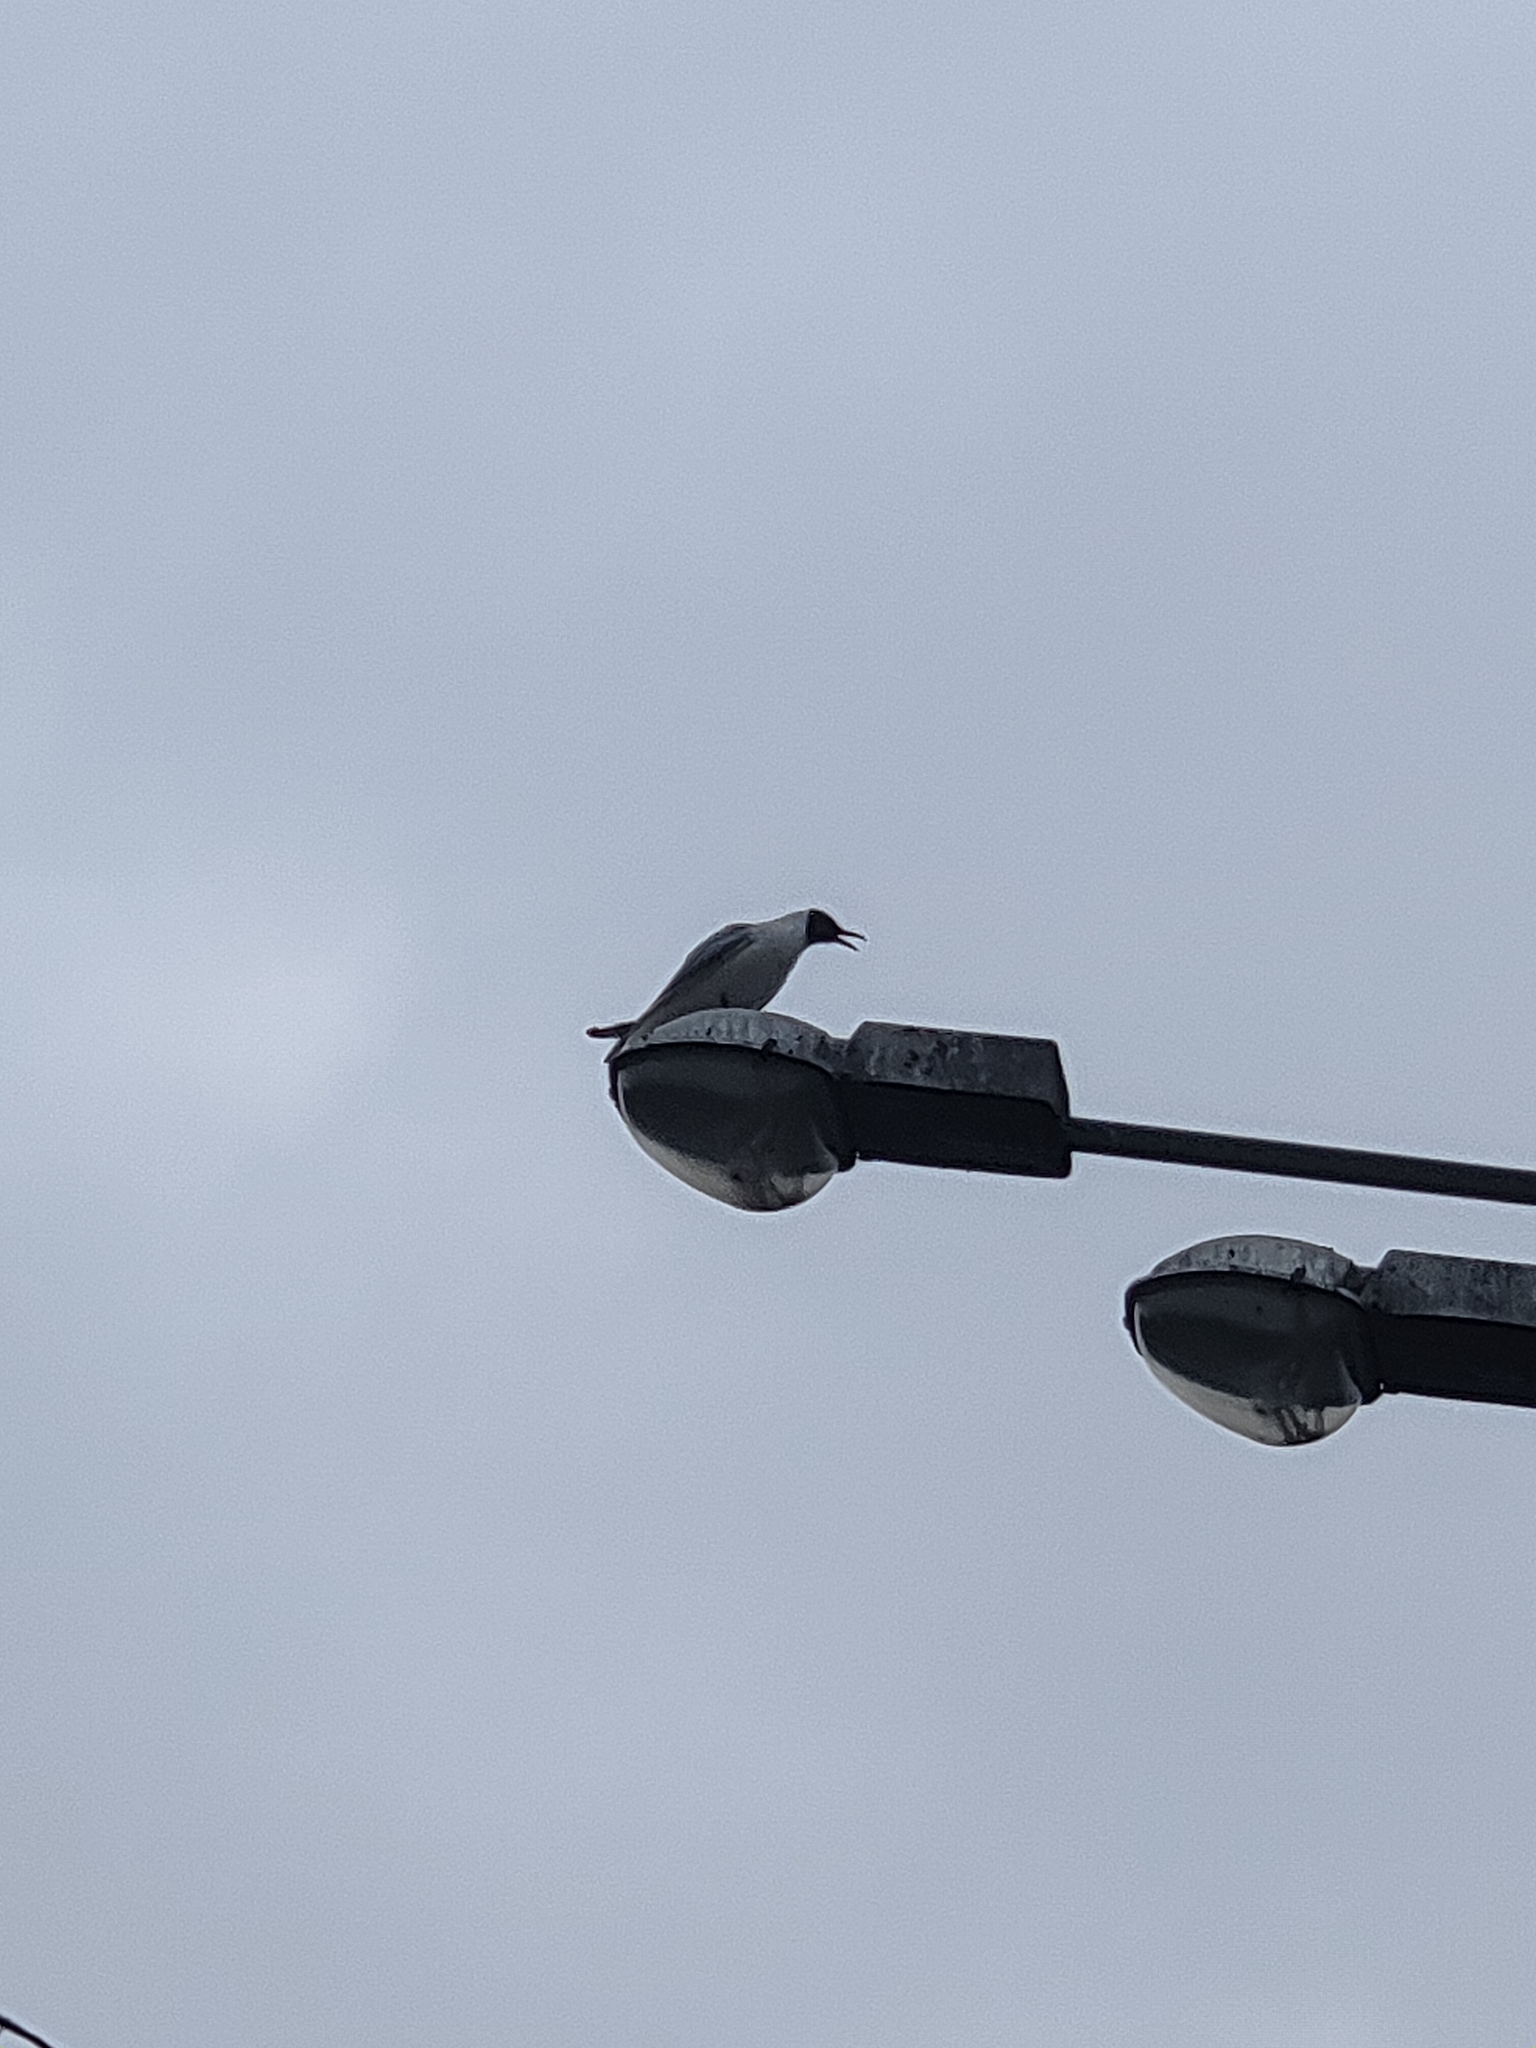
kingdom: Animalia
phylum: Chordata
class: Aves
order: Charadriiformes
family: Laridae
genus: Chroicocephalus
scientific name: Chroicocephalus ridibundus
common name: Black-headed gull
